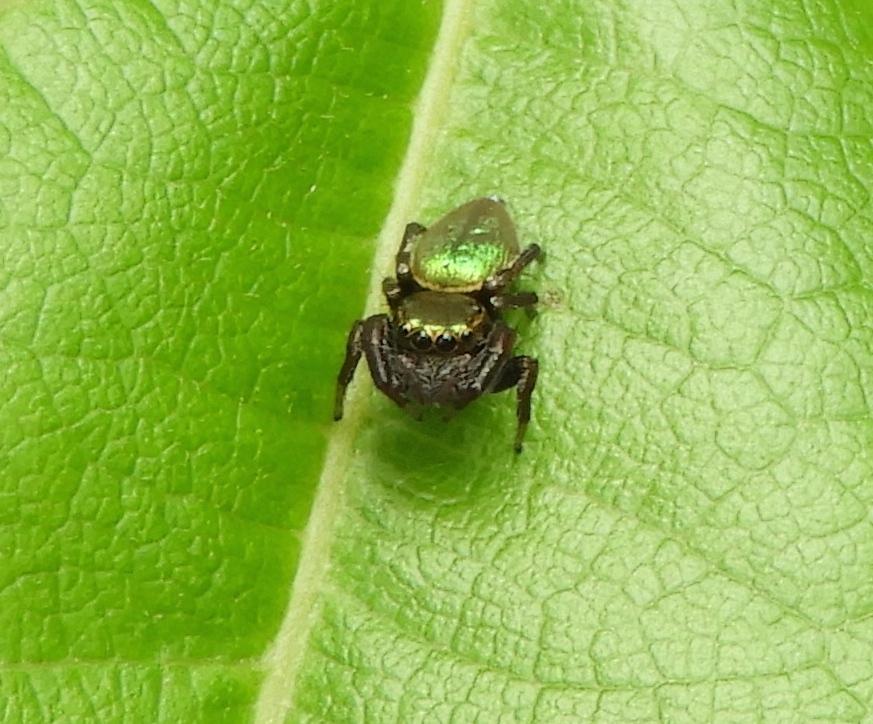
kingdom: Animalia
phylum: Arthropoda
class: Arachnida
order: Araneae
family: Salticidae
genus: Messua
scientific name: Messua limbata
